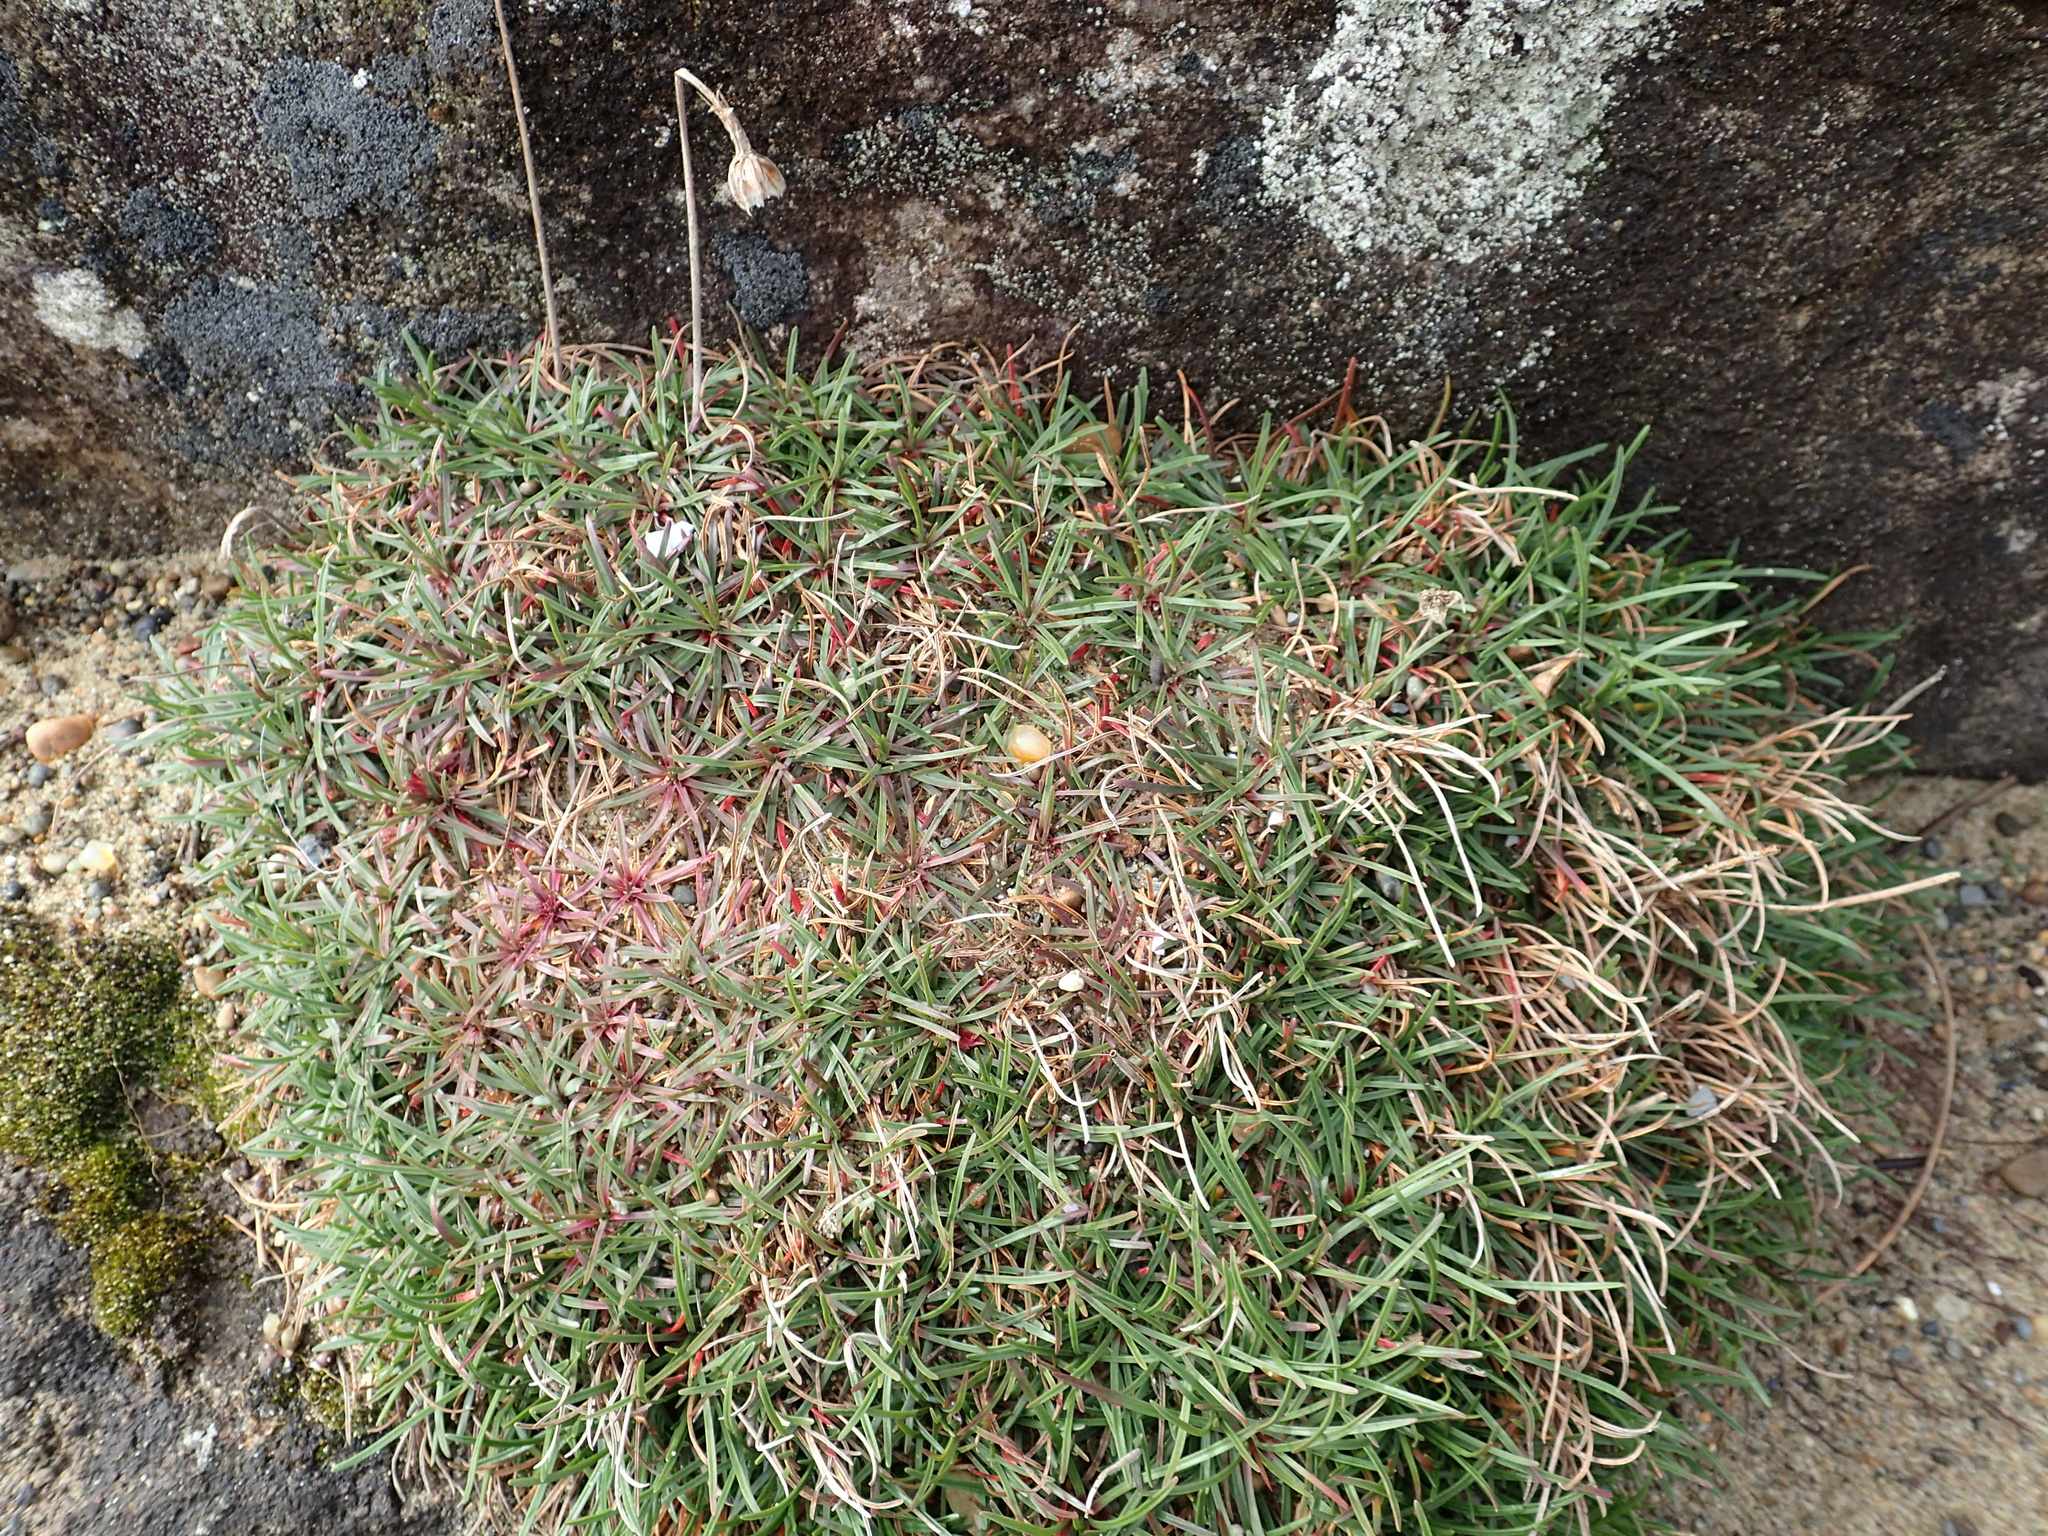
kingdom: Plantae
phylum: Tracheophyta
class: Magnoliopsida
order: Caryophyllales
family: Plumbaginaceae
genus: Armeria
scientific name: Armeria maritima
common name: Thrift
